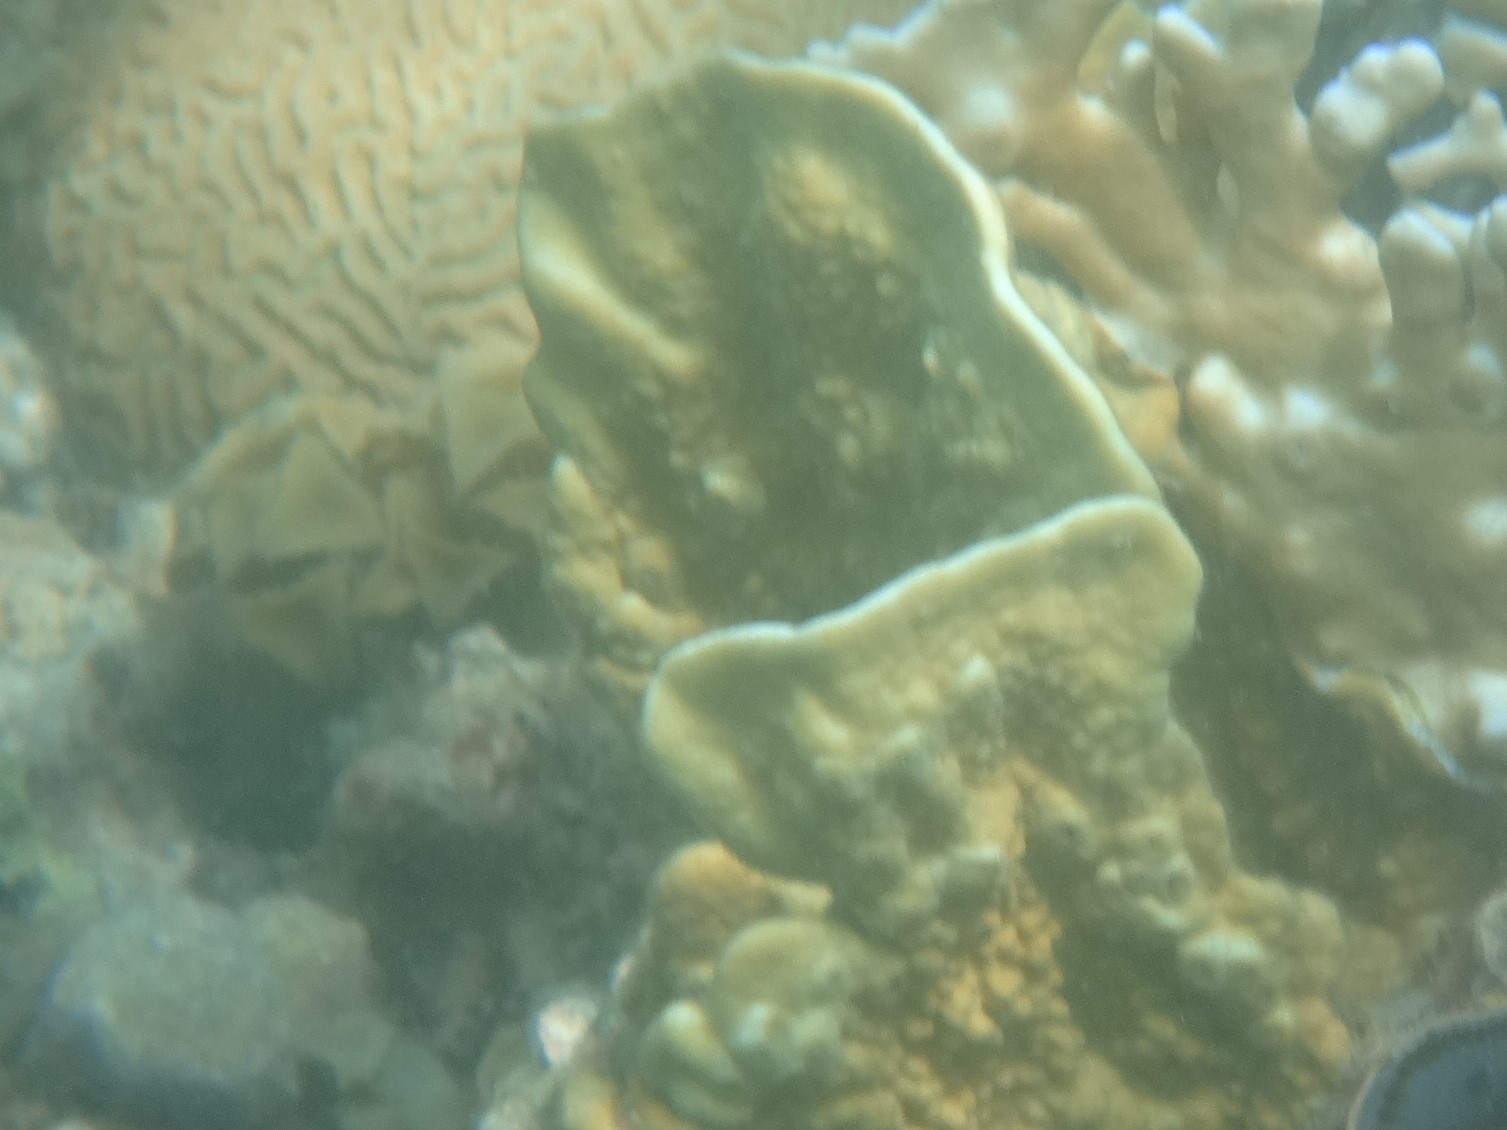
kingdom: Animalia
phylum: Cnidaria
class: Hydrozoa
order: Anthoathecata
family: Milleporidae
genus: Millepora
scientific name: Millepora platyphylla
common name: Sheet fire coral
